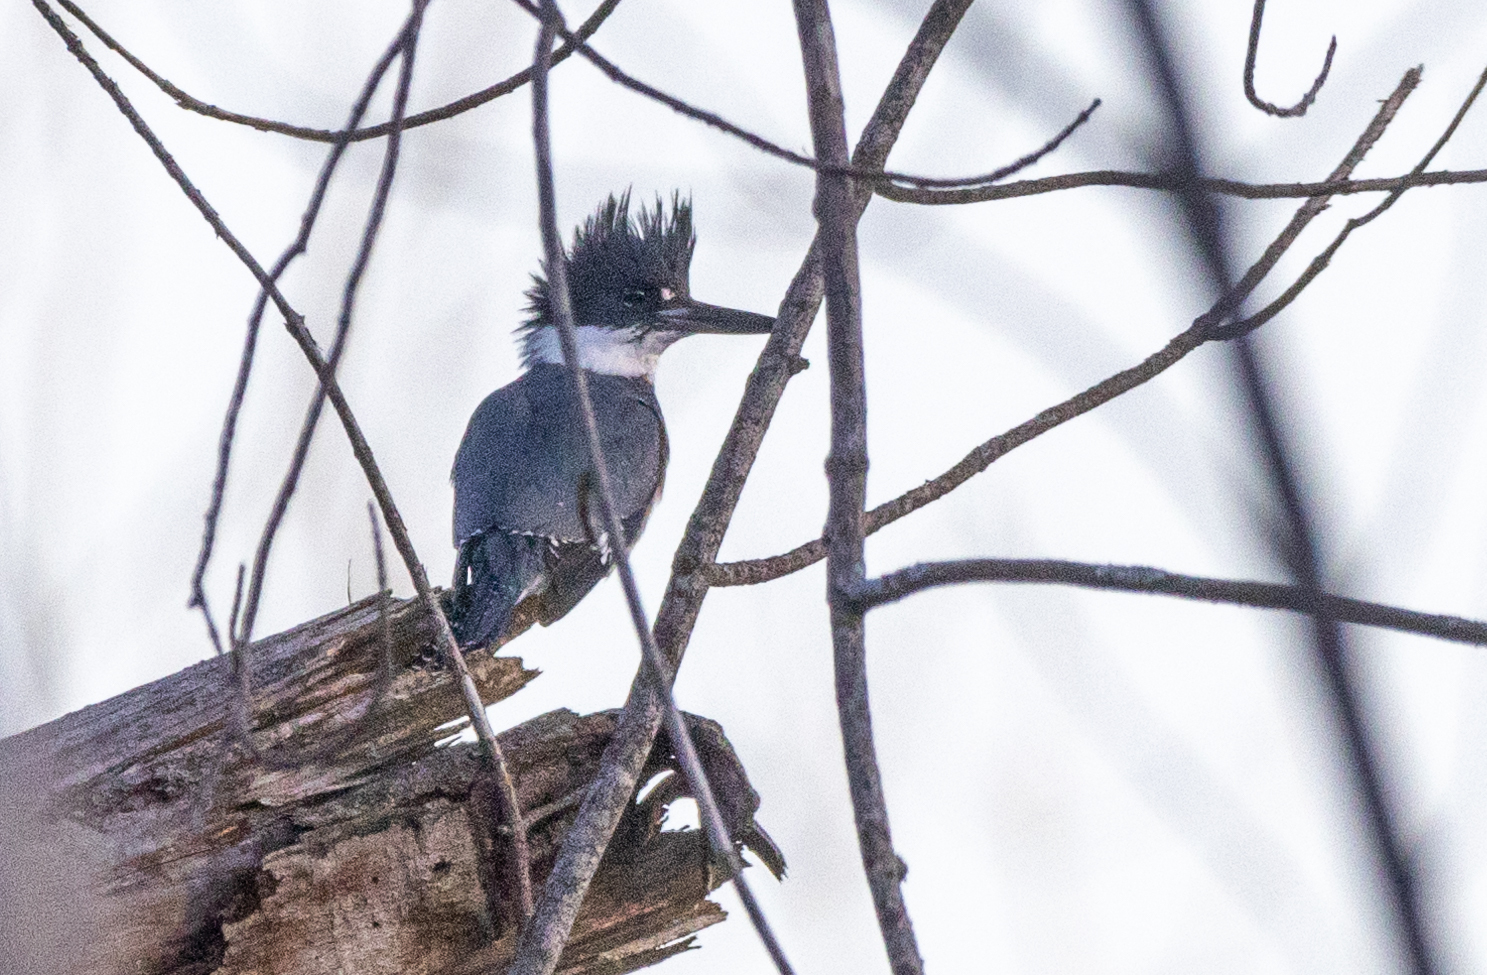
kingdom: Animalia
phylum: Chordata
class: Aves
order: Coraciiformes
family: Alcedinidae
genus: Megaceryle
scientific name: Megaceryle alcyon
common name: Belted kingfisher
